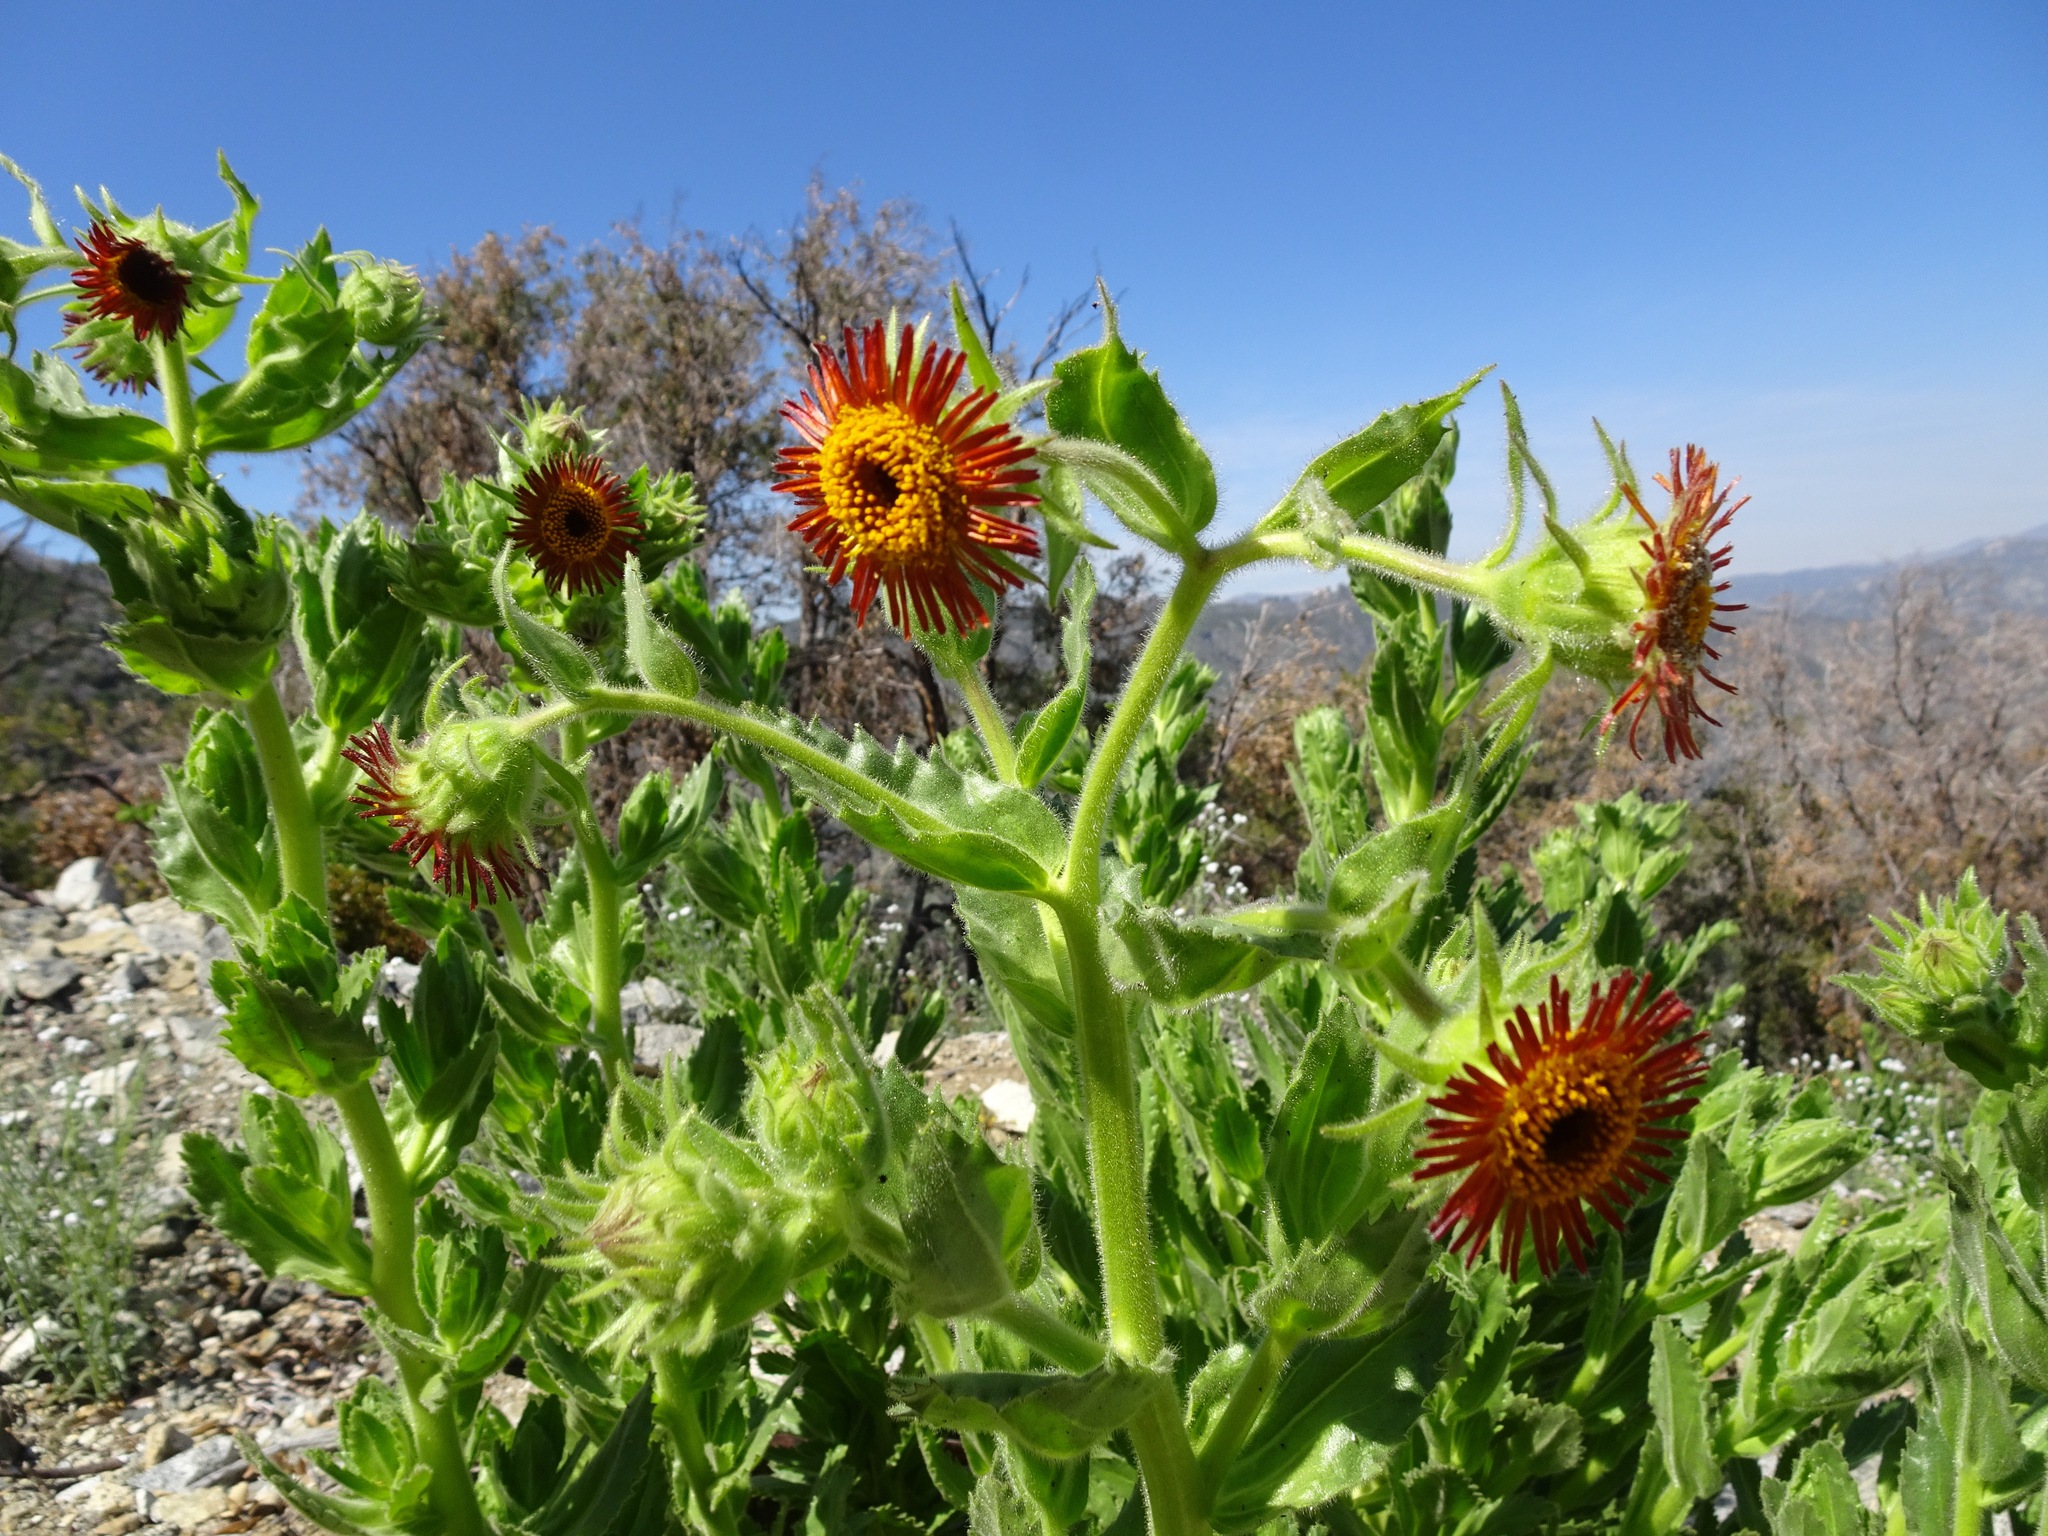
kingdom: Plantae
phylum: Tracheophyta
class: Magnoliopsida
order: Asterales
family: Asteraceae
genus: Hulsea
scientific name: Hulsea heterochroma
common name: Redray alpinegold
